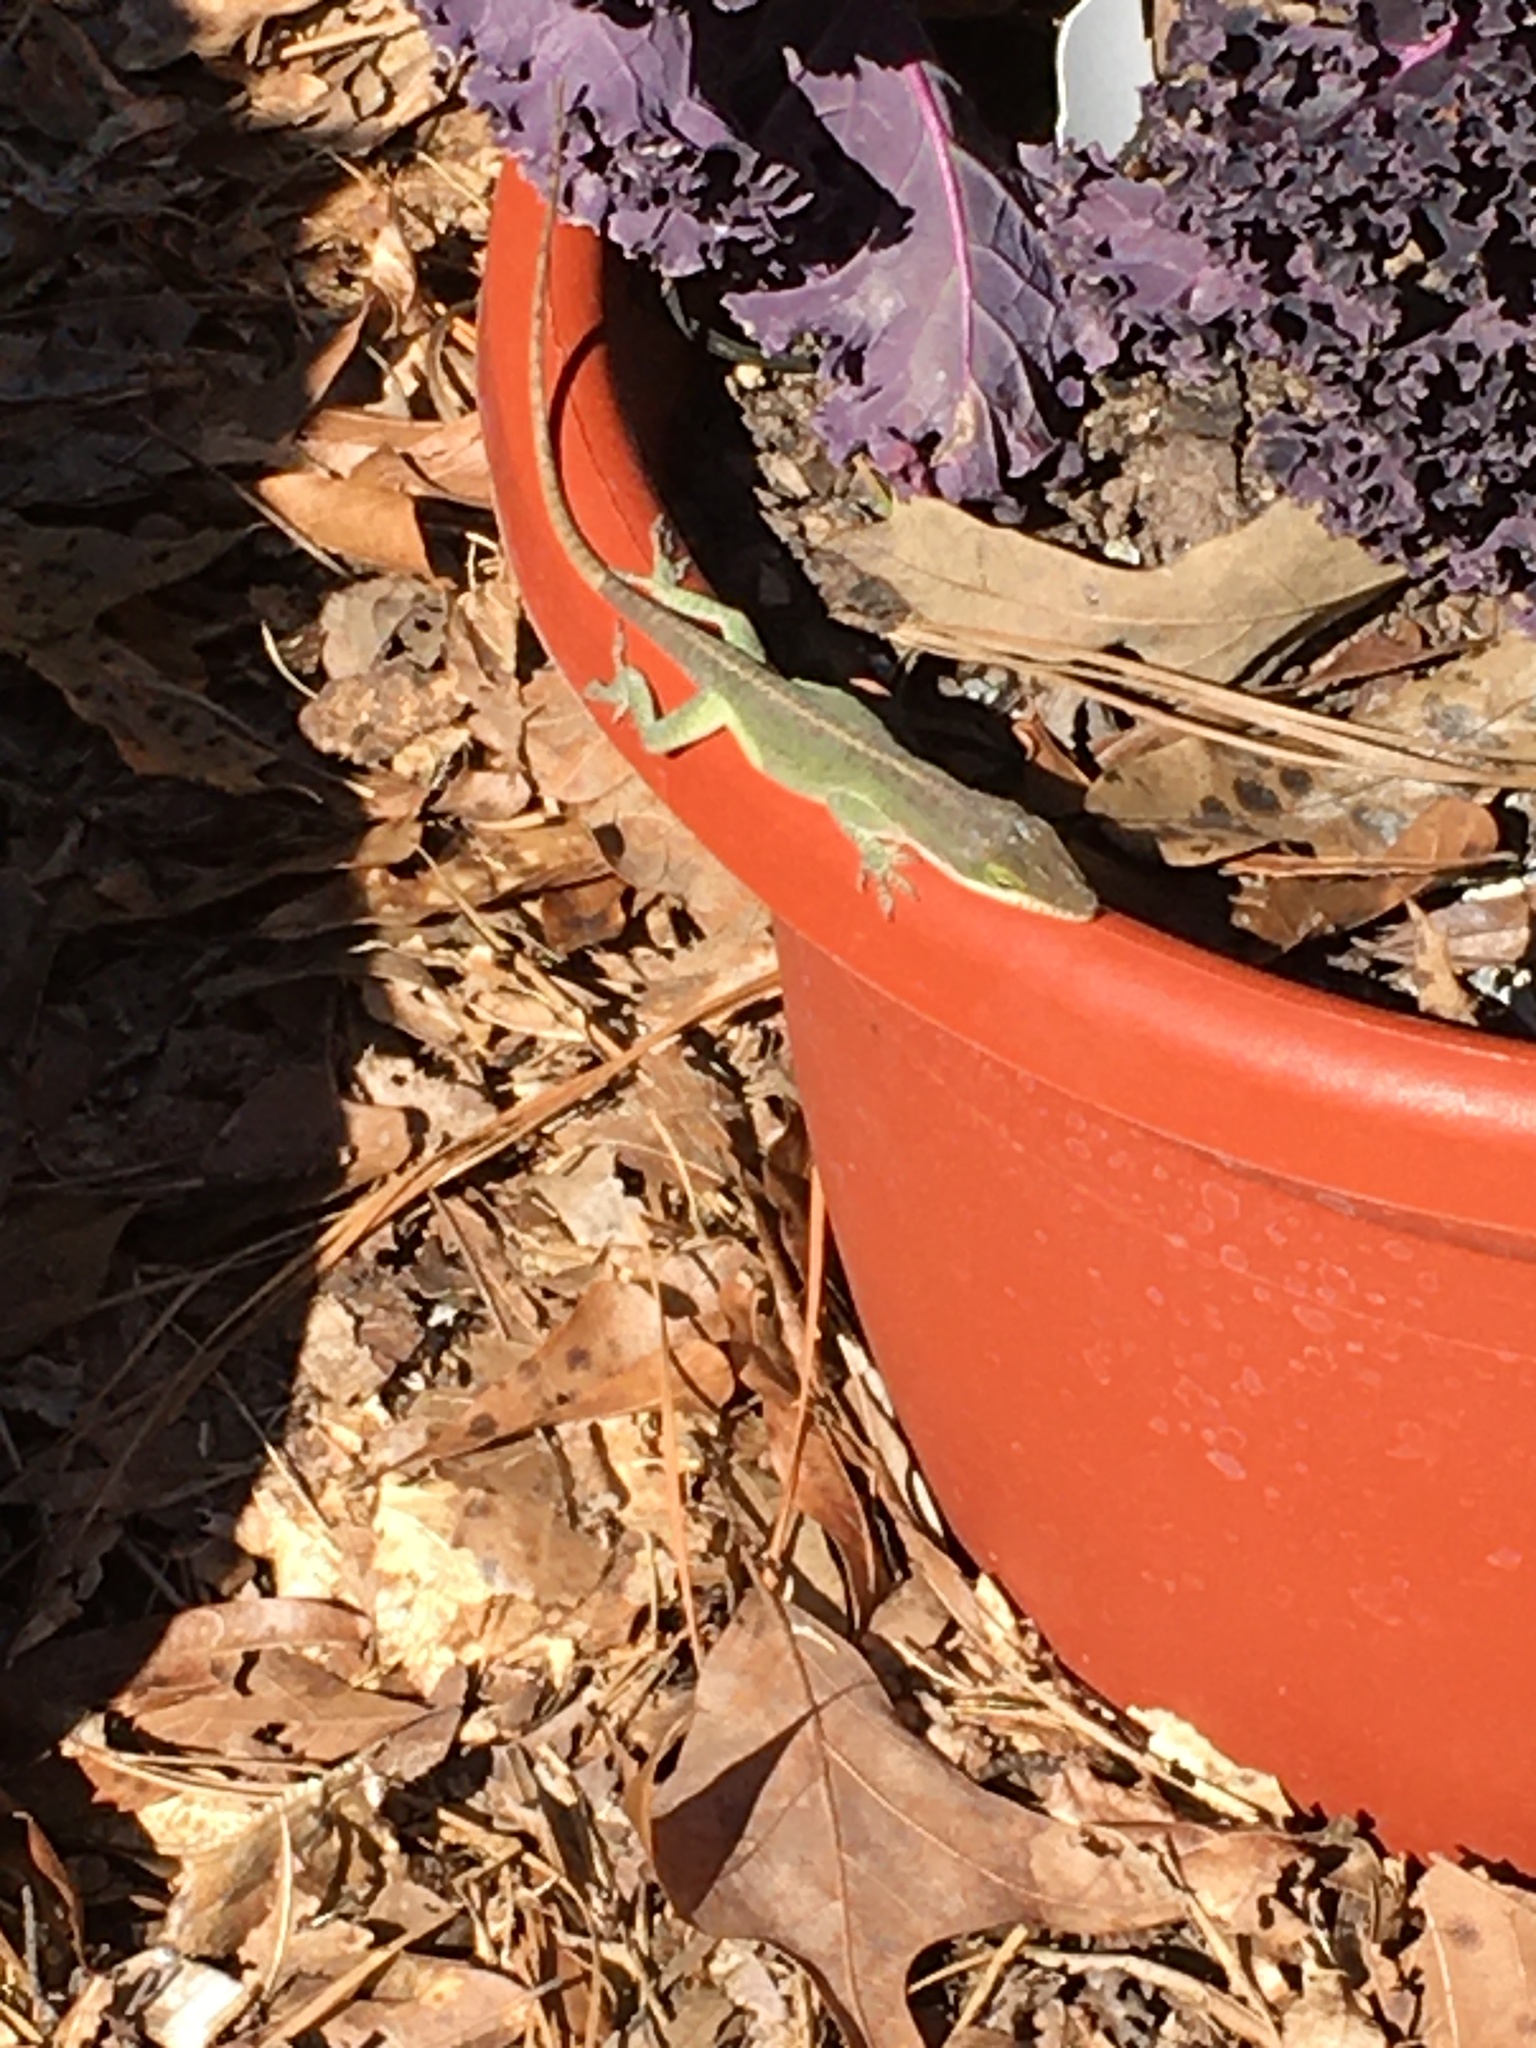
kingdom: Animalia
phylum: Chordata
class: Squamata
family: Dactyloidae
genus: Anolis
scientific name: Anolis carolinensis
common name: Green anole
